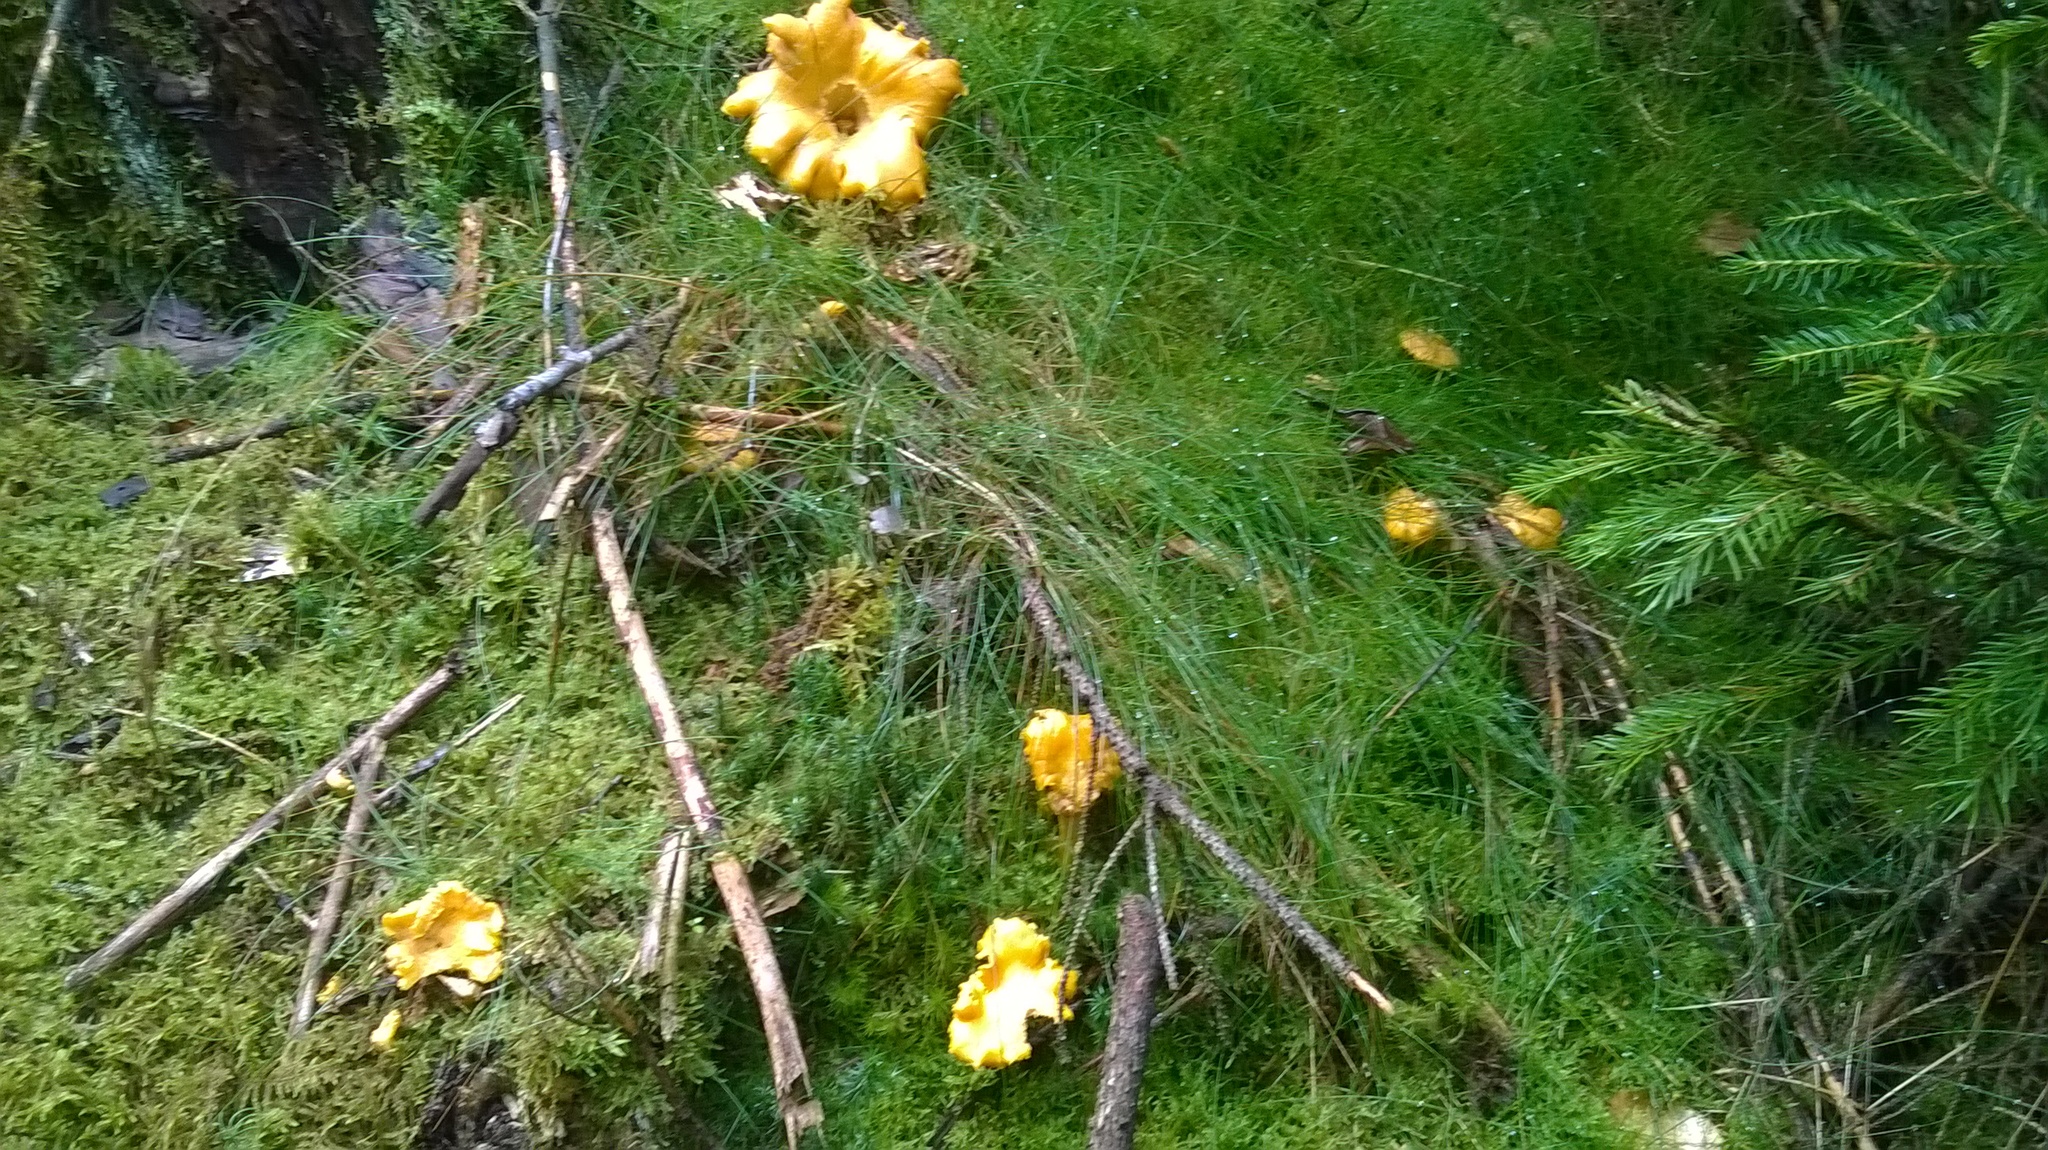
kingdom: Fungi
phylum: Basidiomycota
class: Agaricomycetes
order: Cantharellales
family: Hydnaceae
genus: Cantharellus
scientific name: Cantharellus cibarius
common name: Chanterelle
